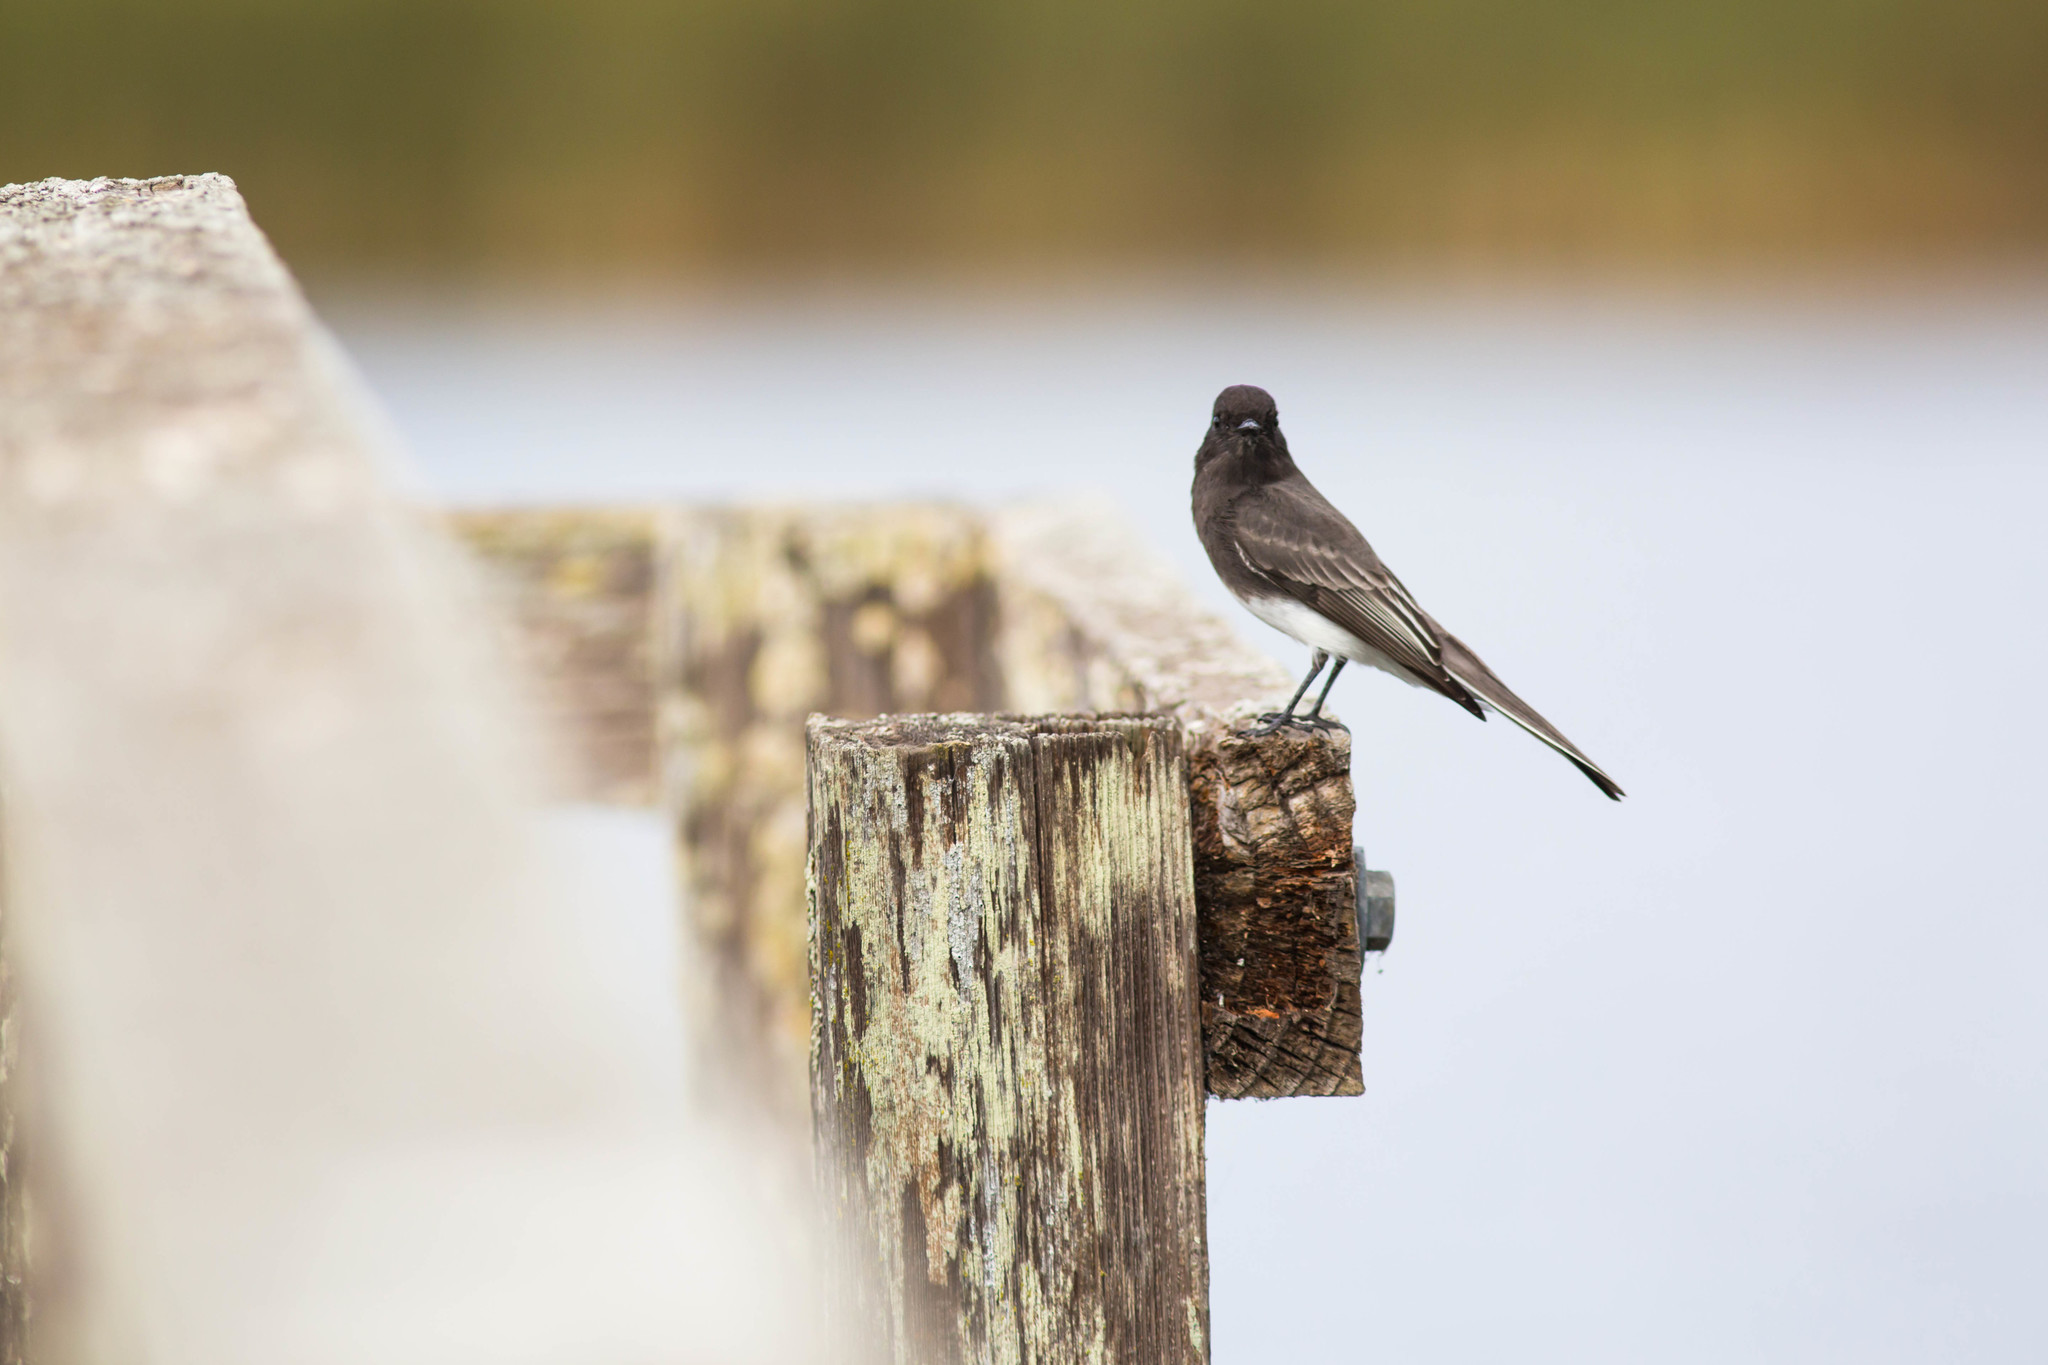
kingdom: Animalia
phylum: Chordata
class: Aves
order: Passeriformes
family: Tyrannidae
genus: Sayornis
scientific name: Sayornis nigricans
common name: Black phoebe
